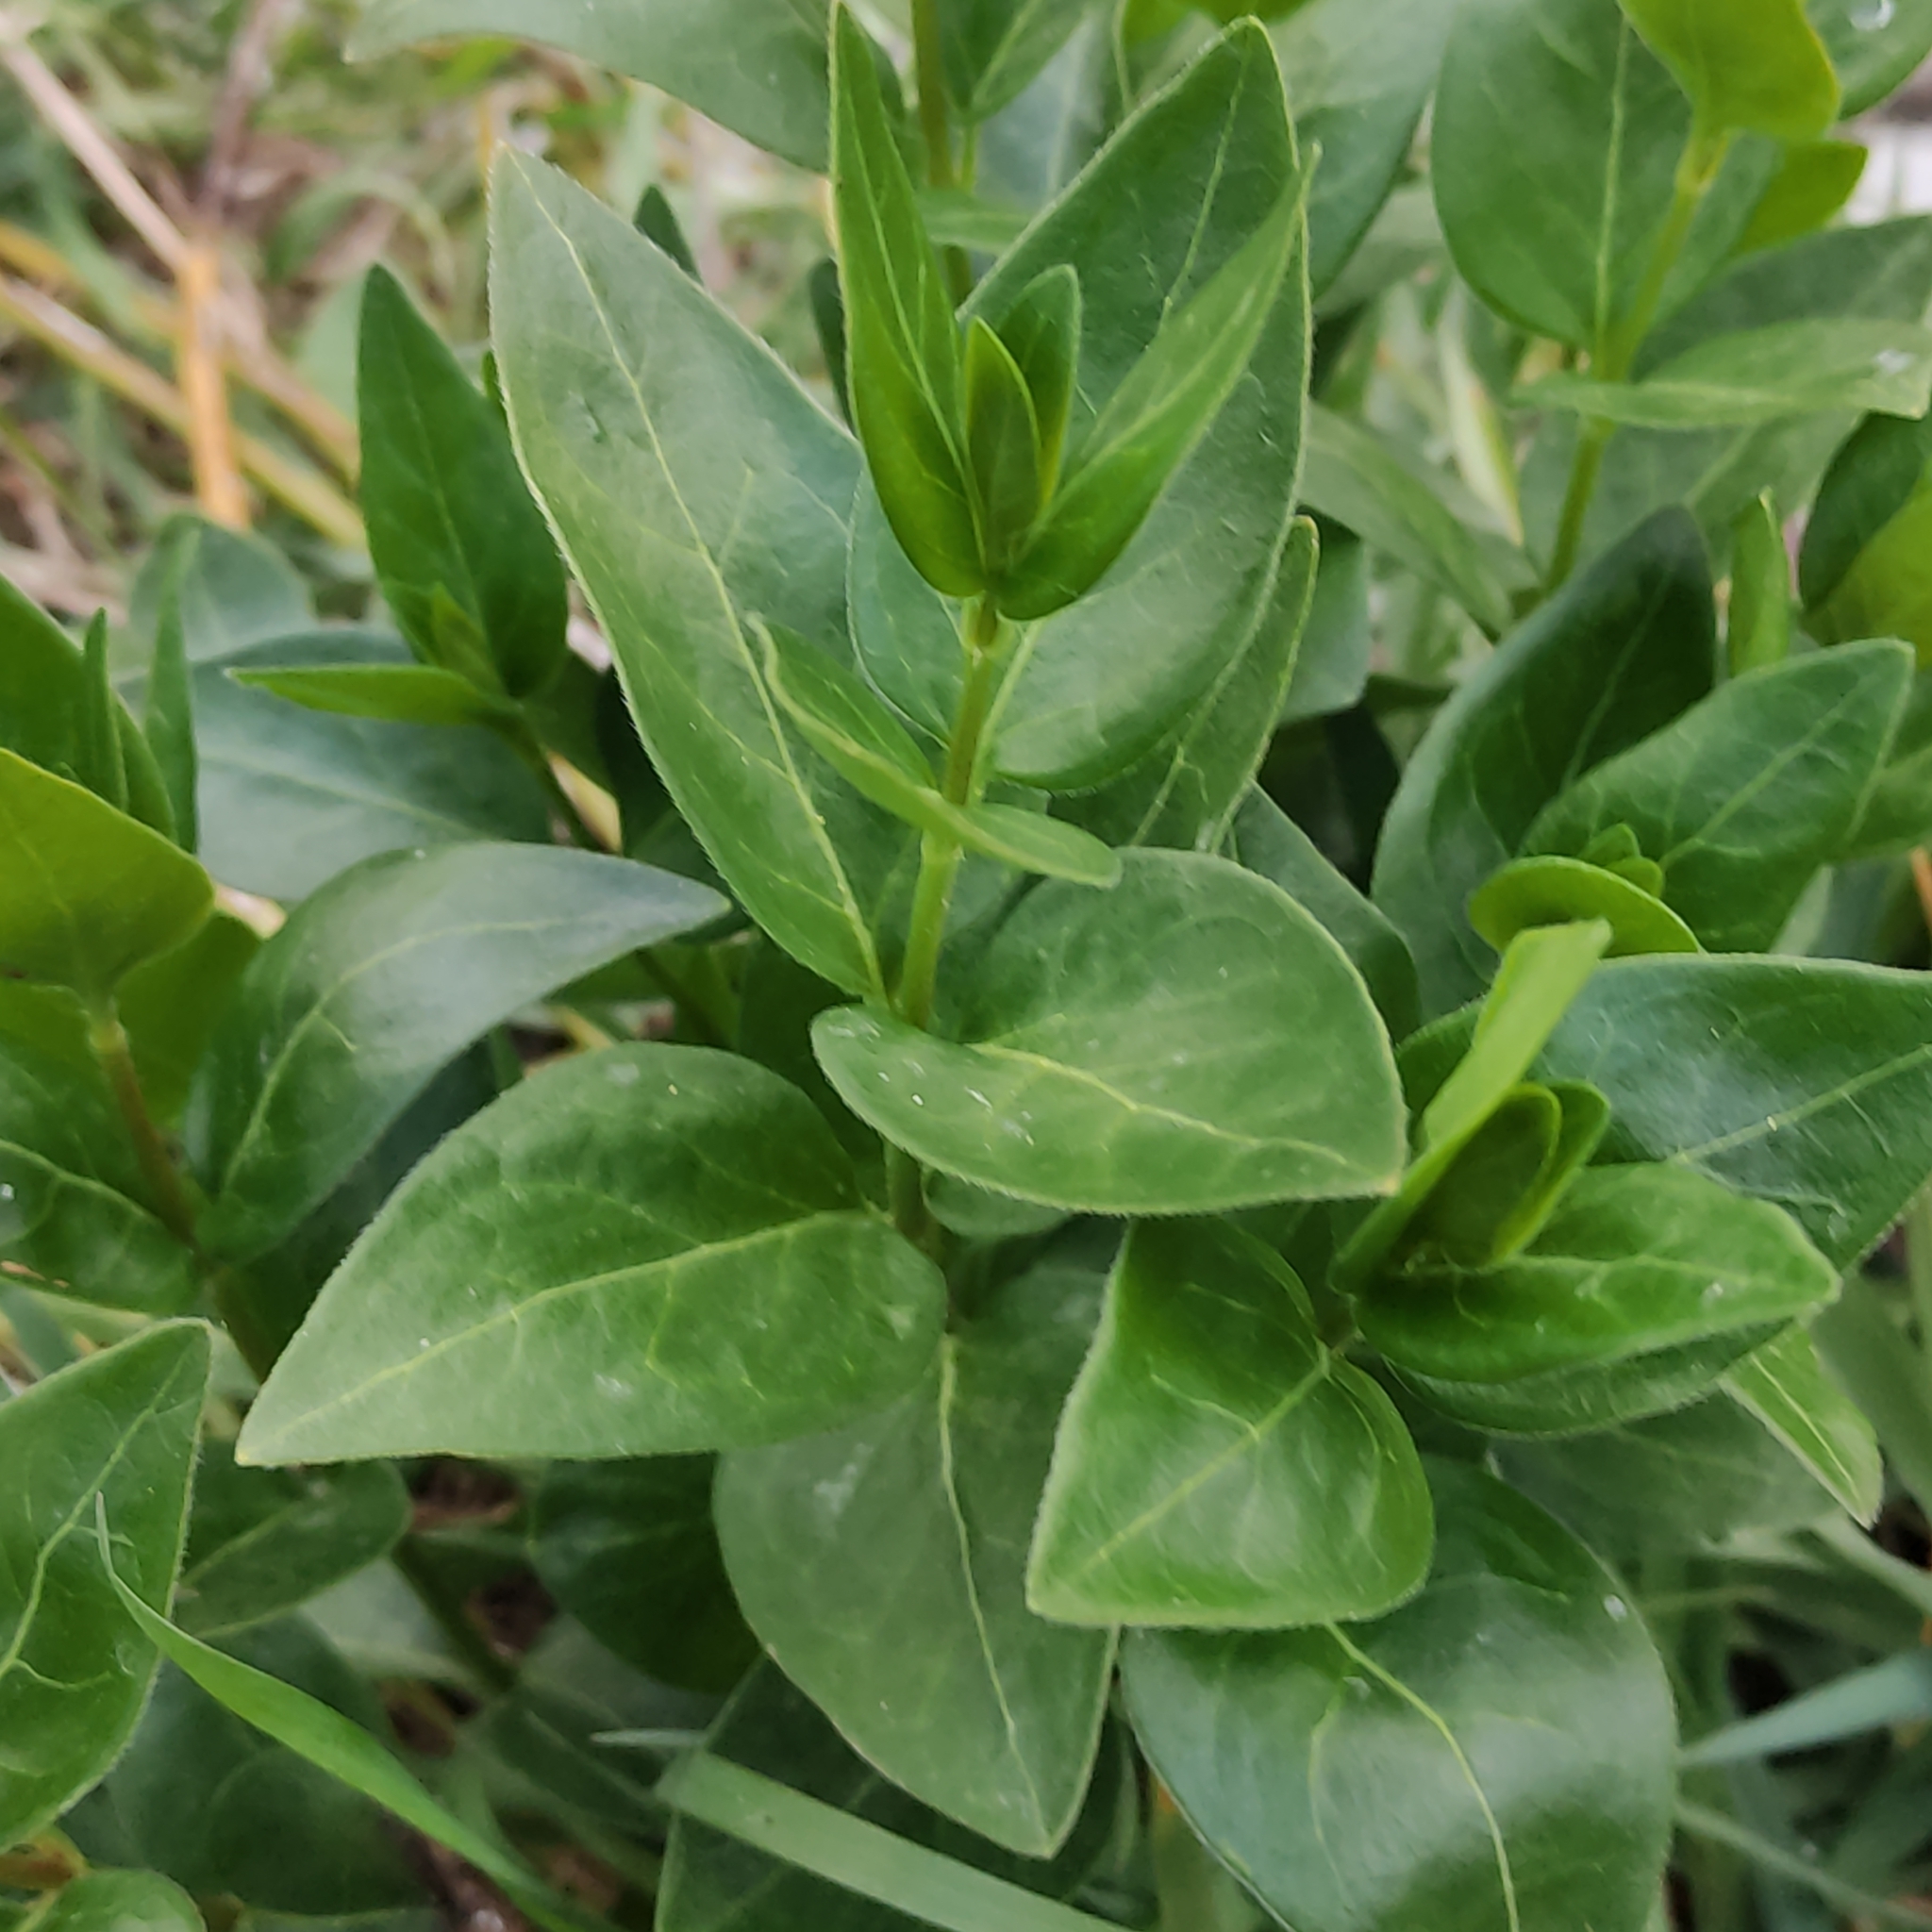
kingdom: Plantae
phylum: Tracheophyta
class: Magnoliopsida
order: Gentianales
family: Apocynaceae
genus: Vinca
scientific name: Vinca major
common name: Greater periwinkle
